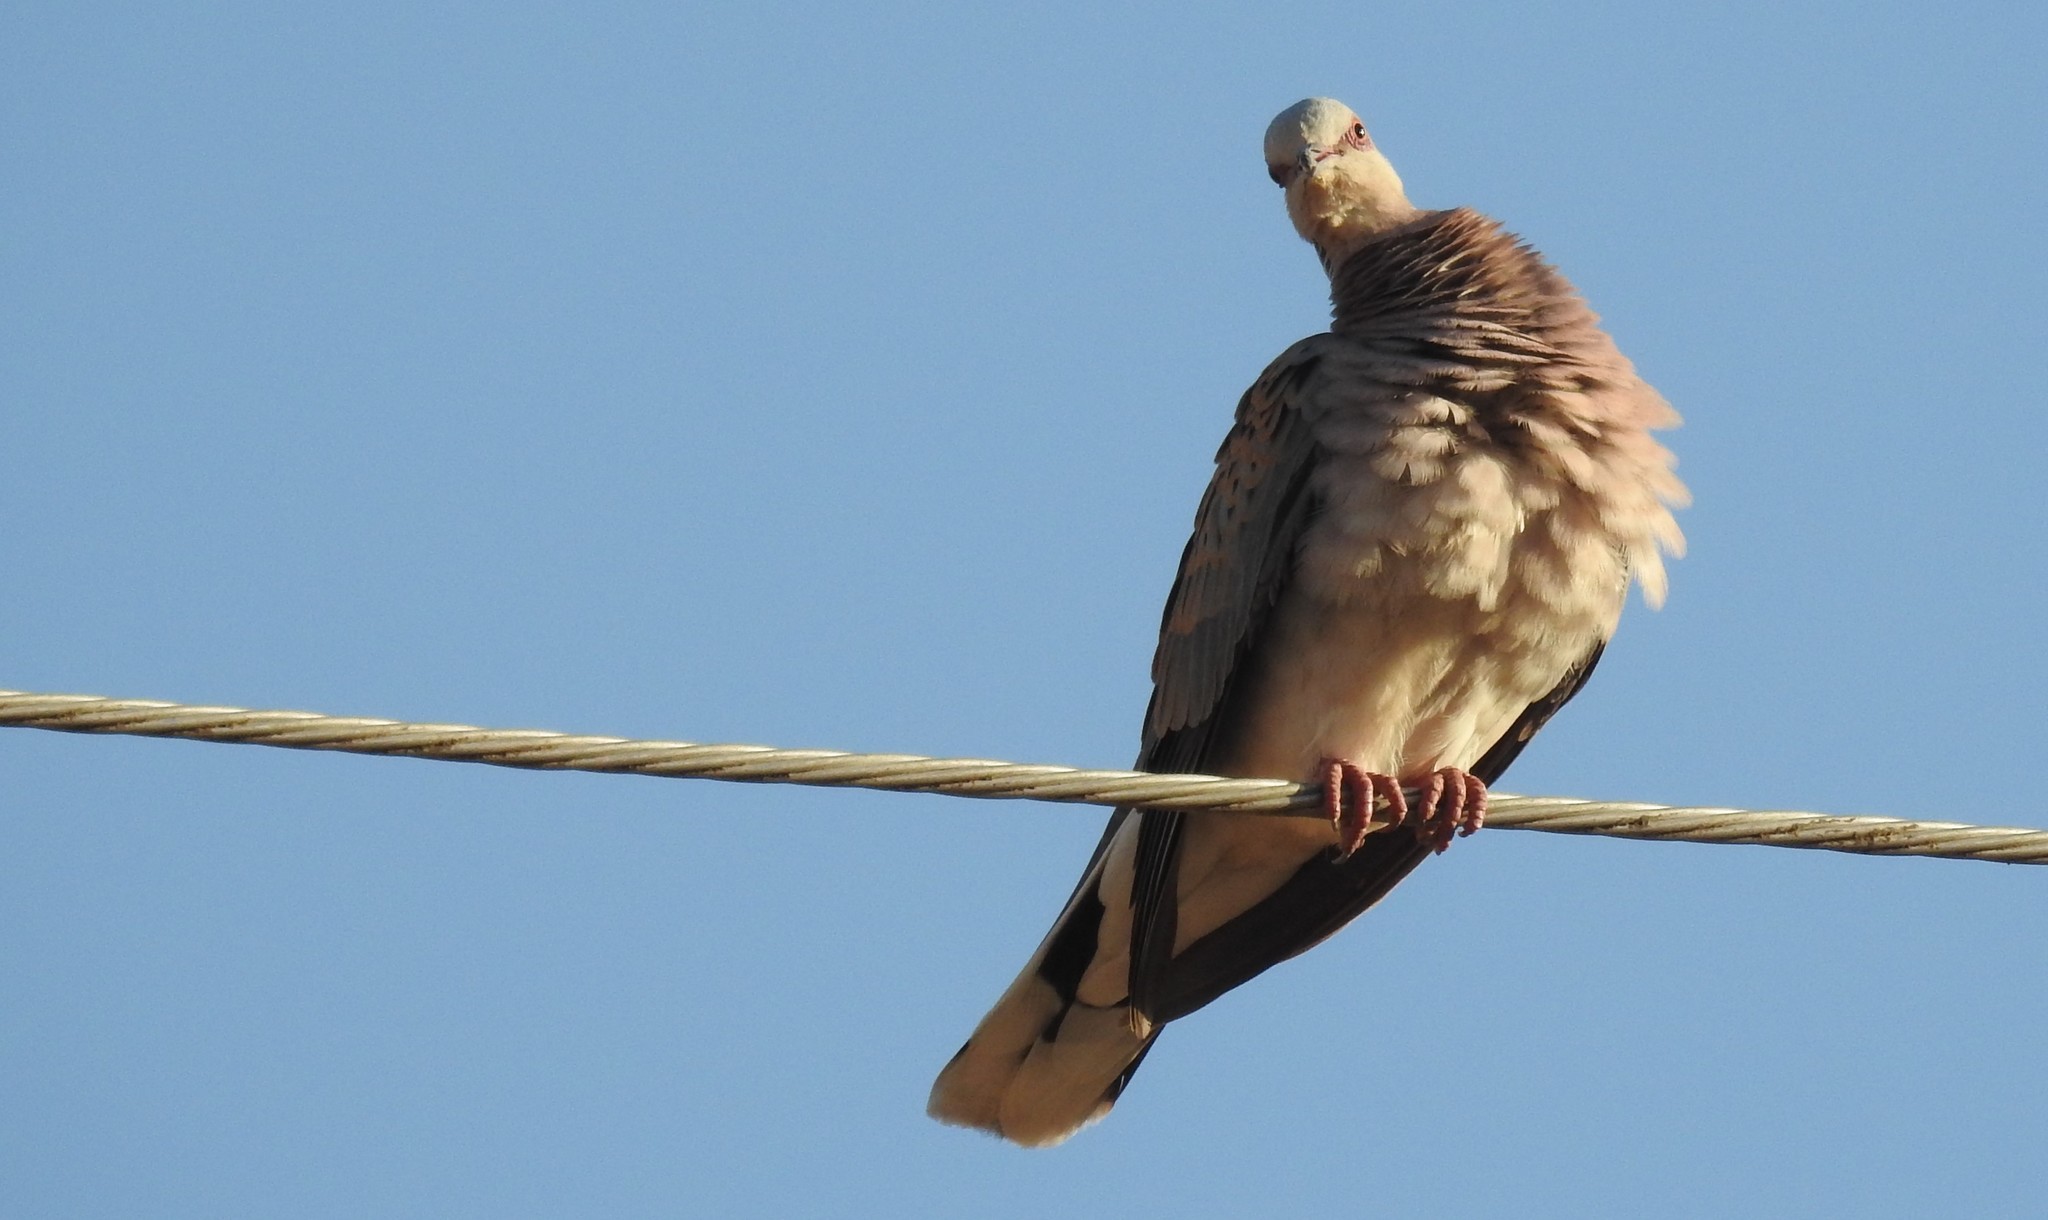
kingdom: Animalia
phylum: Chordata
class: Aves
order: Columbiformes
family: Columbidae
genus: Streptopelia
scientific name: Streptopelia turtur
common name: European turtle dove
